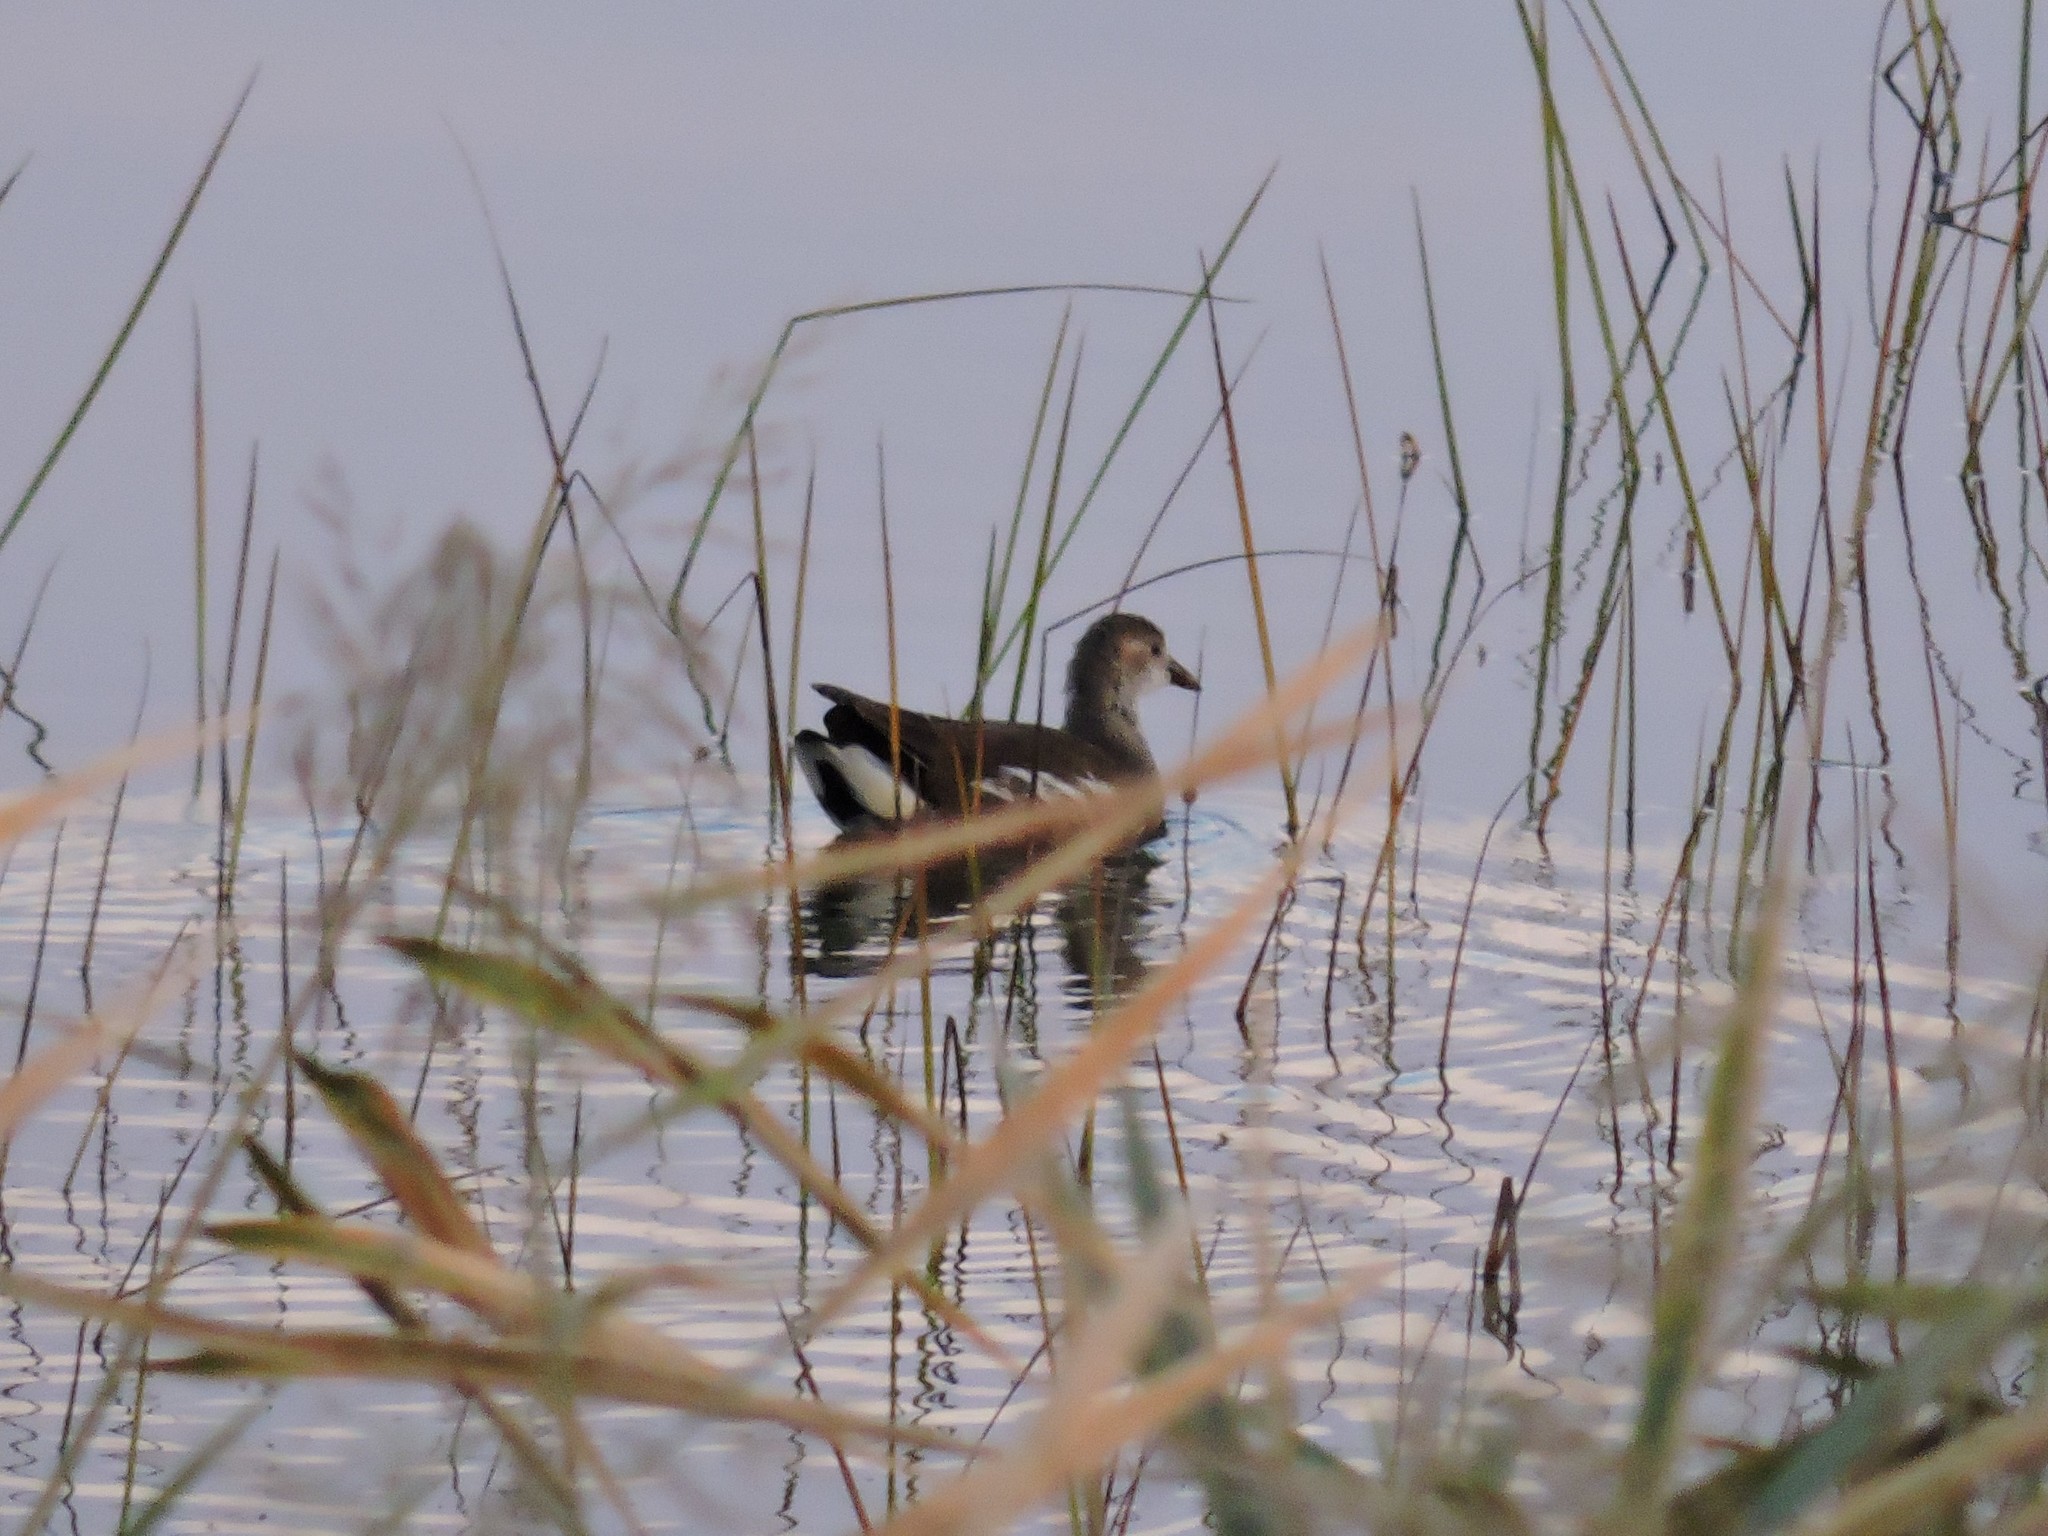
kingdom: Animalia
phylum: Chordata
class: Aves
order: Gruiformes
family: Rallidae
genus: Gallinula
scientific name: Gallinula chloropus
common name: Common moorhen
